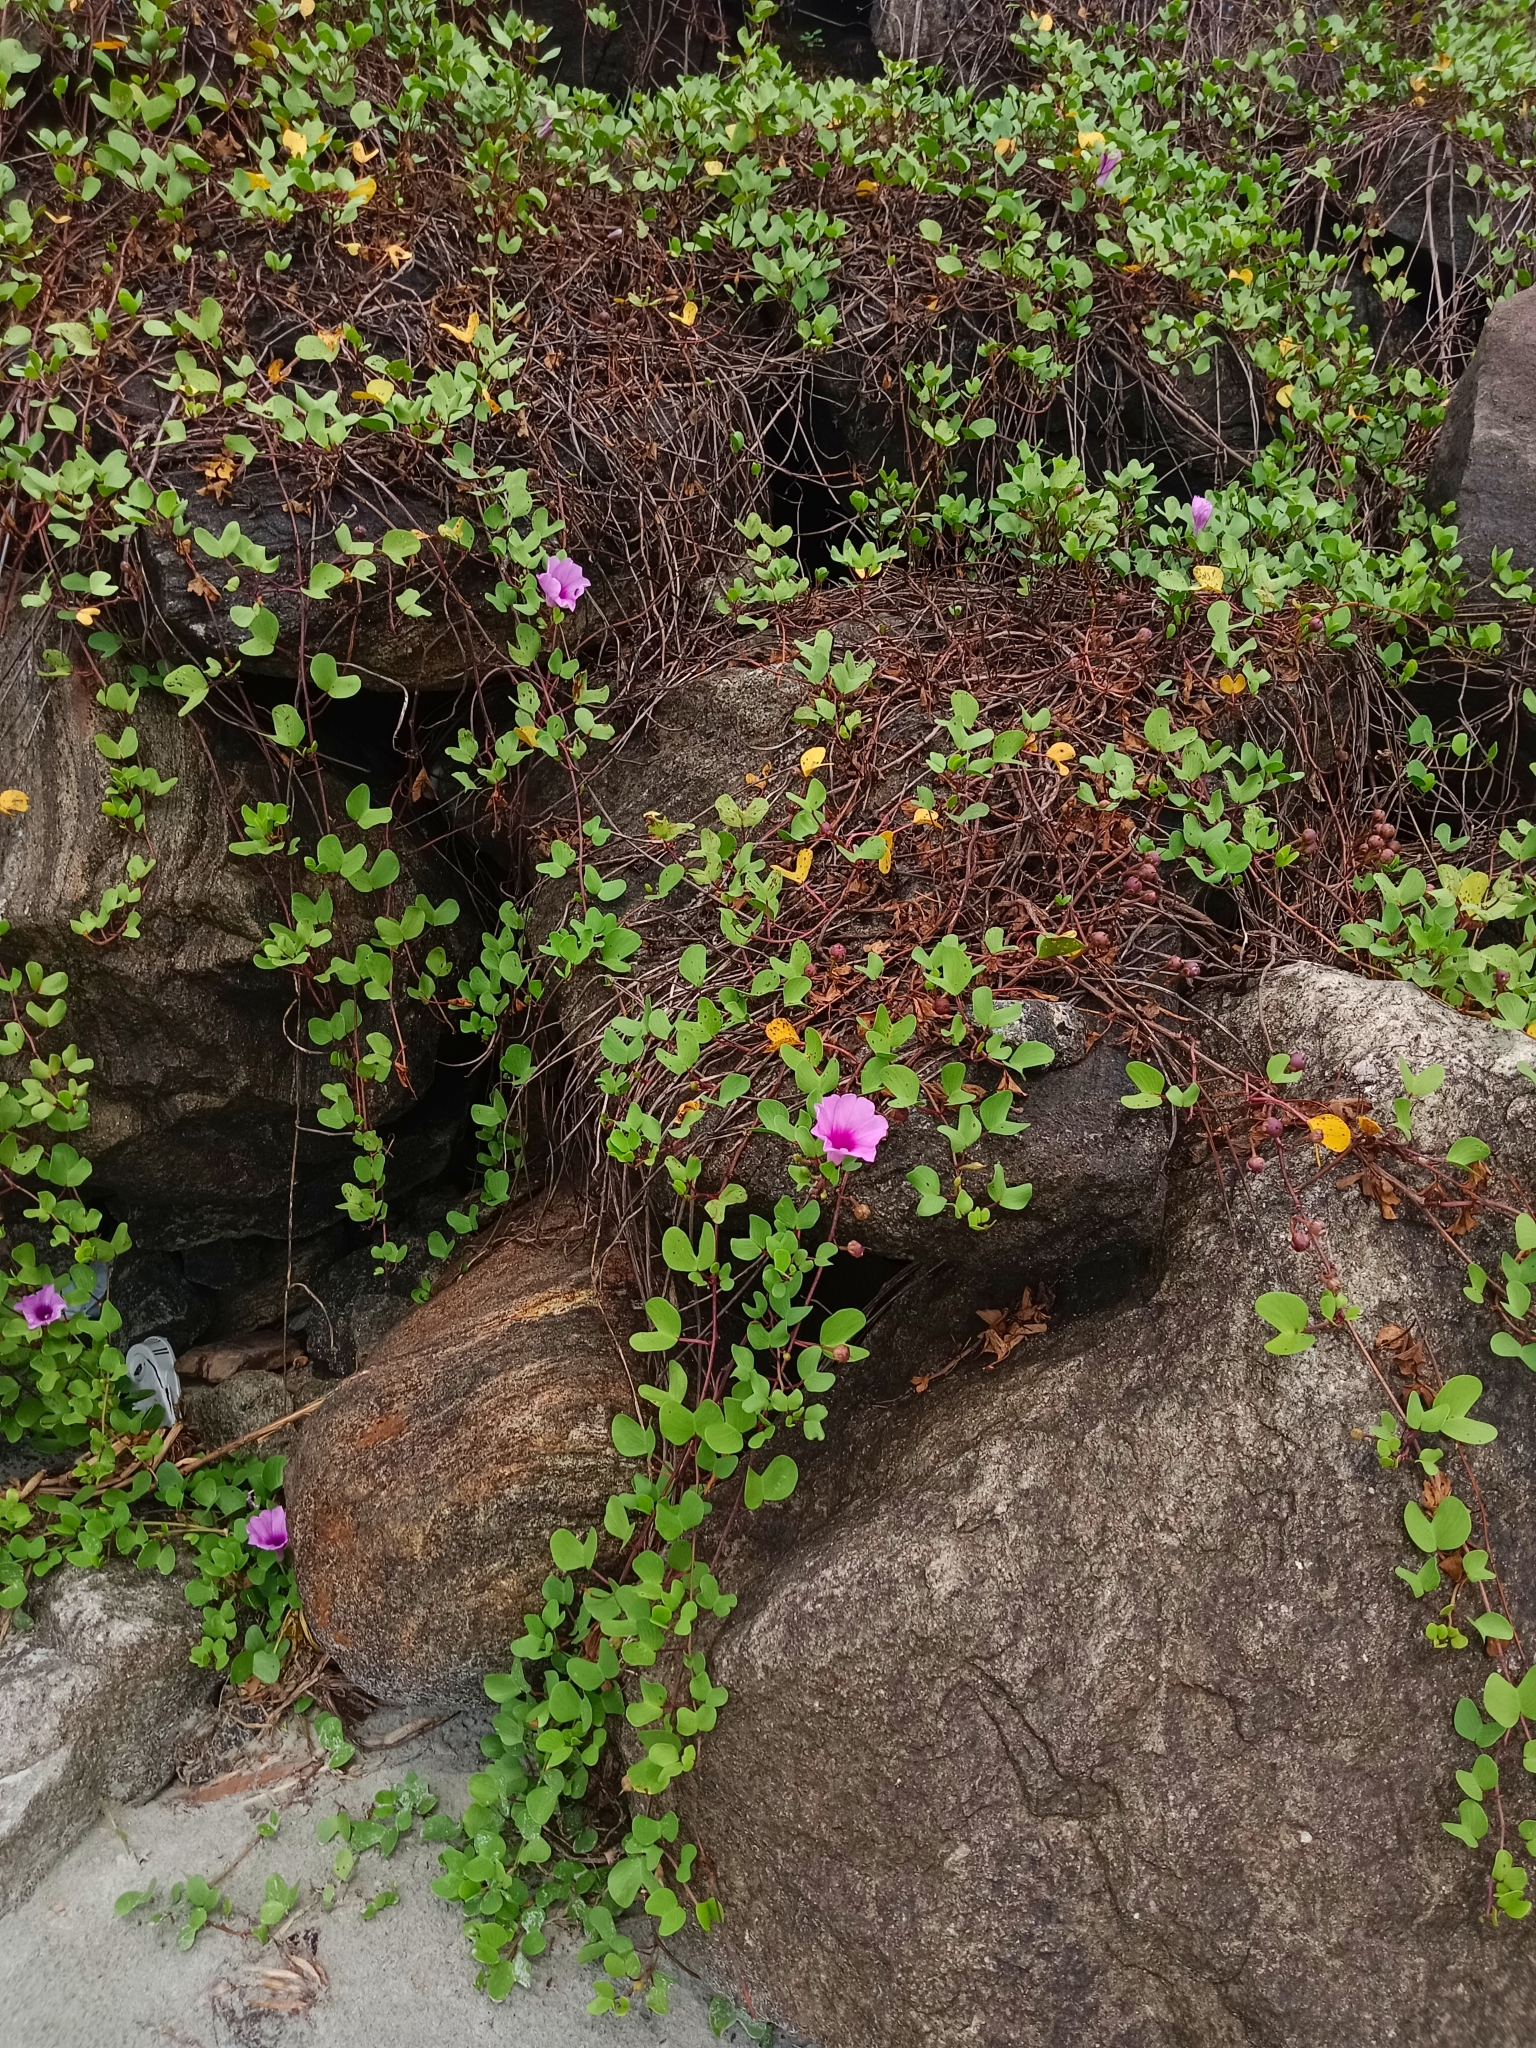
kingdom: Plantae
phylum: Tracheophyta
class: Magnoliopsida
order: Solanales
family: Convolvulaceae
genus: Ipomoea
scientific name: Ipomoea pes-caprae
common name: Beach morning glory
